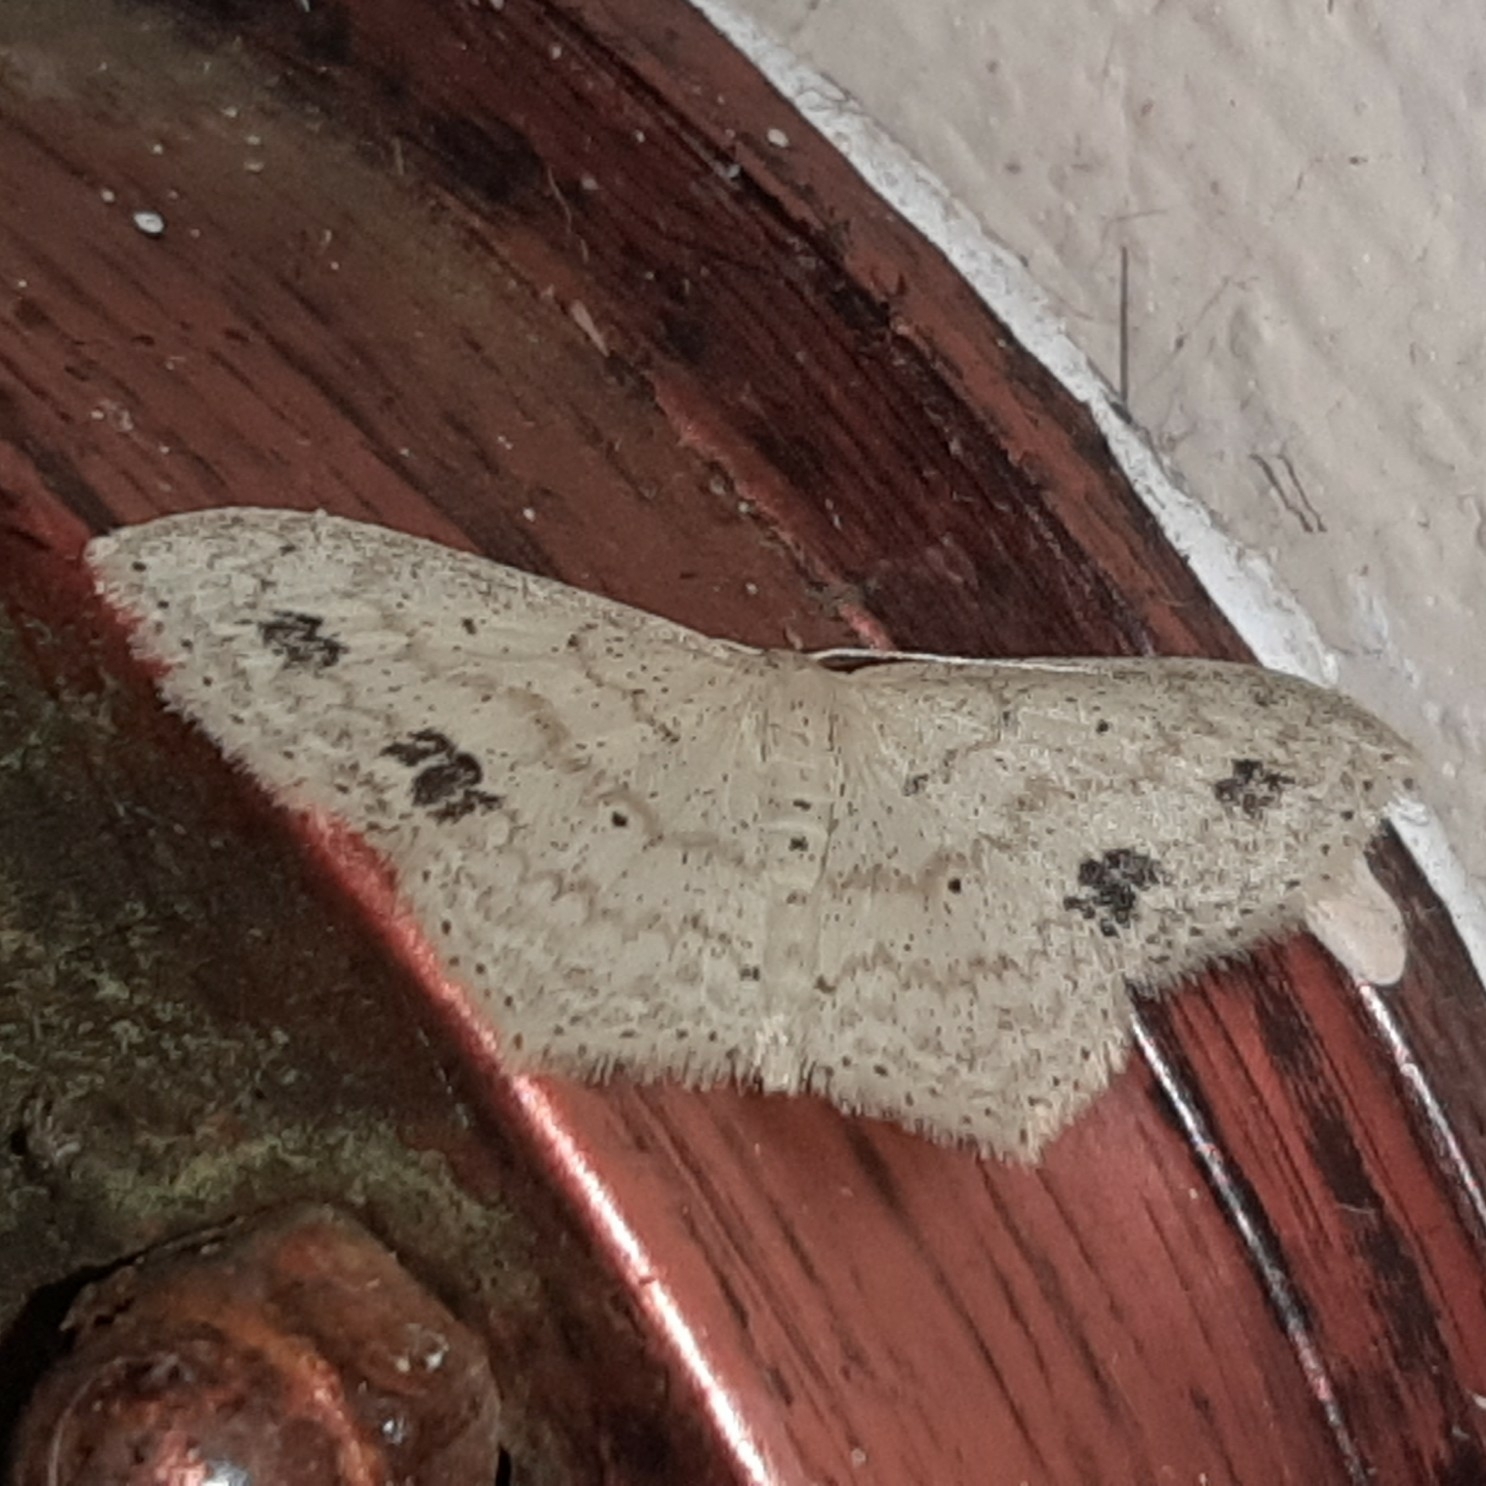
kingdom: Animalia
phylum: Arthropoda
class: Insecta
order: Lepidoptera
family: Geometridae
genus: Scopula
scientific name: Scopula phyxelis
